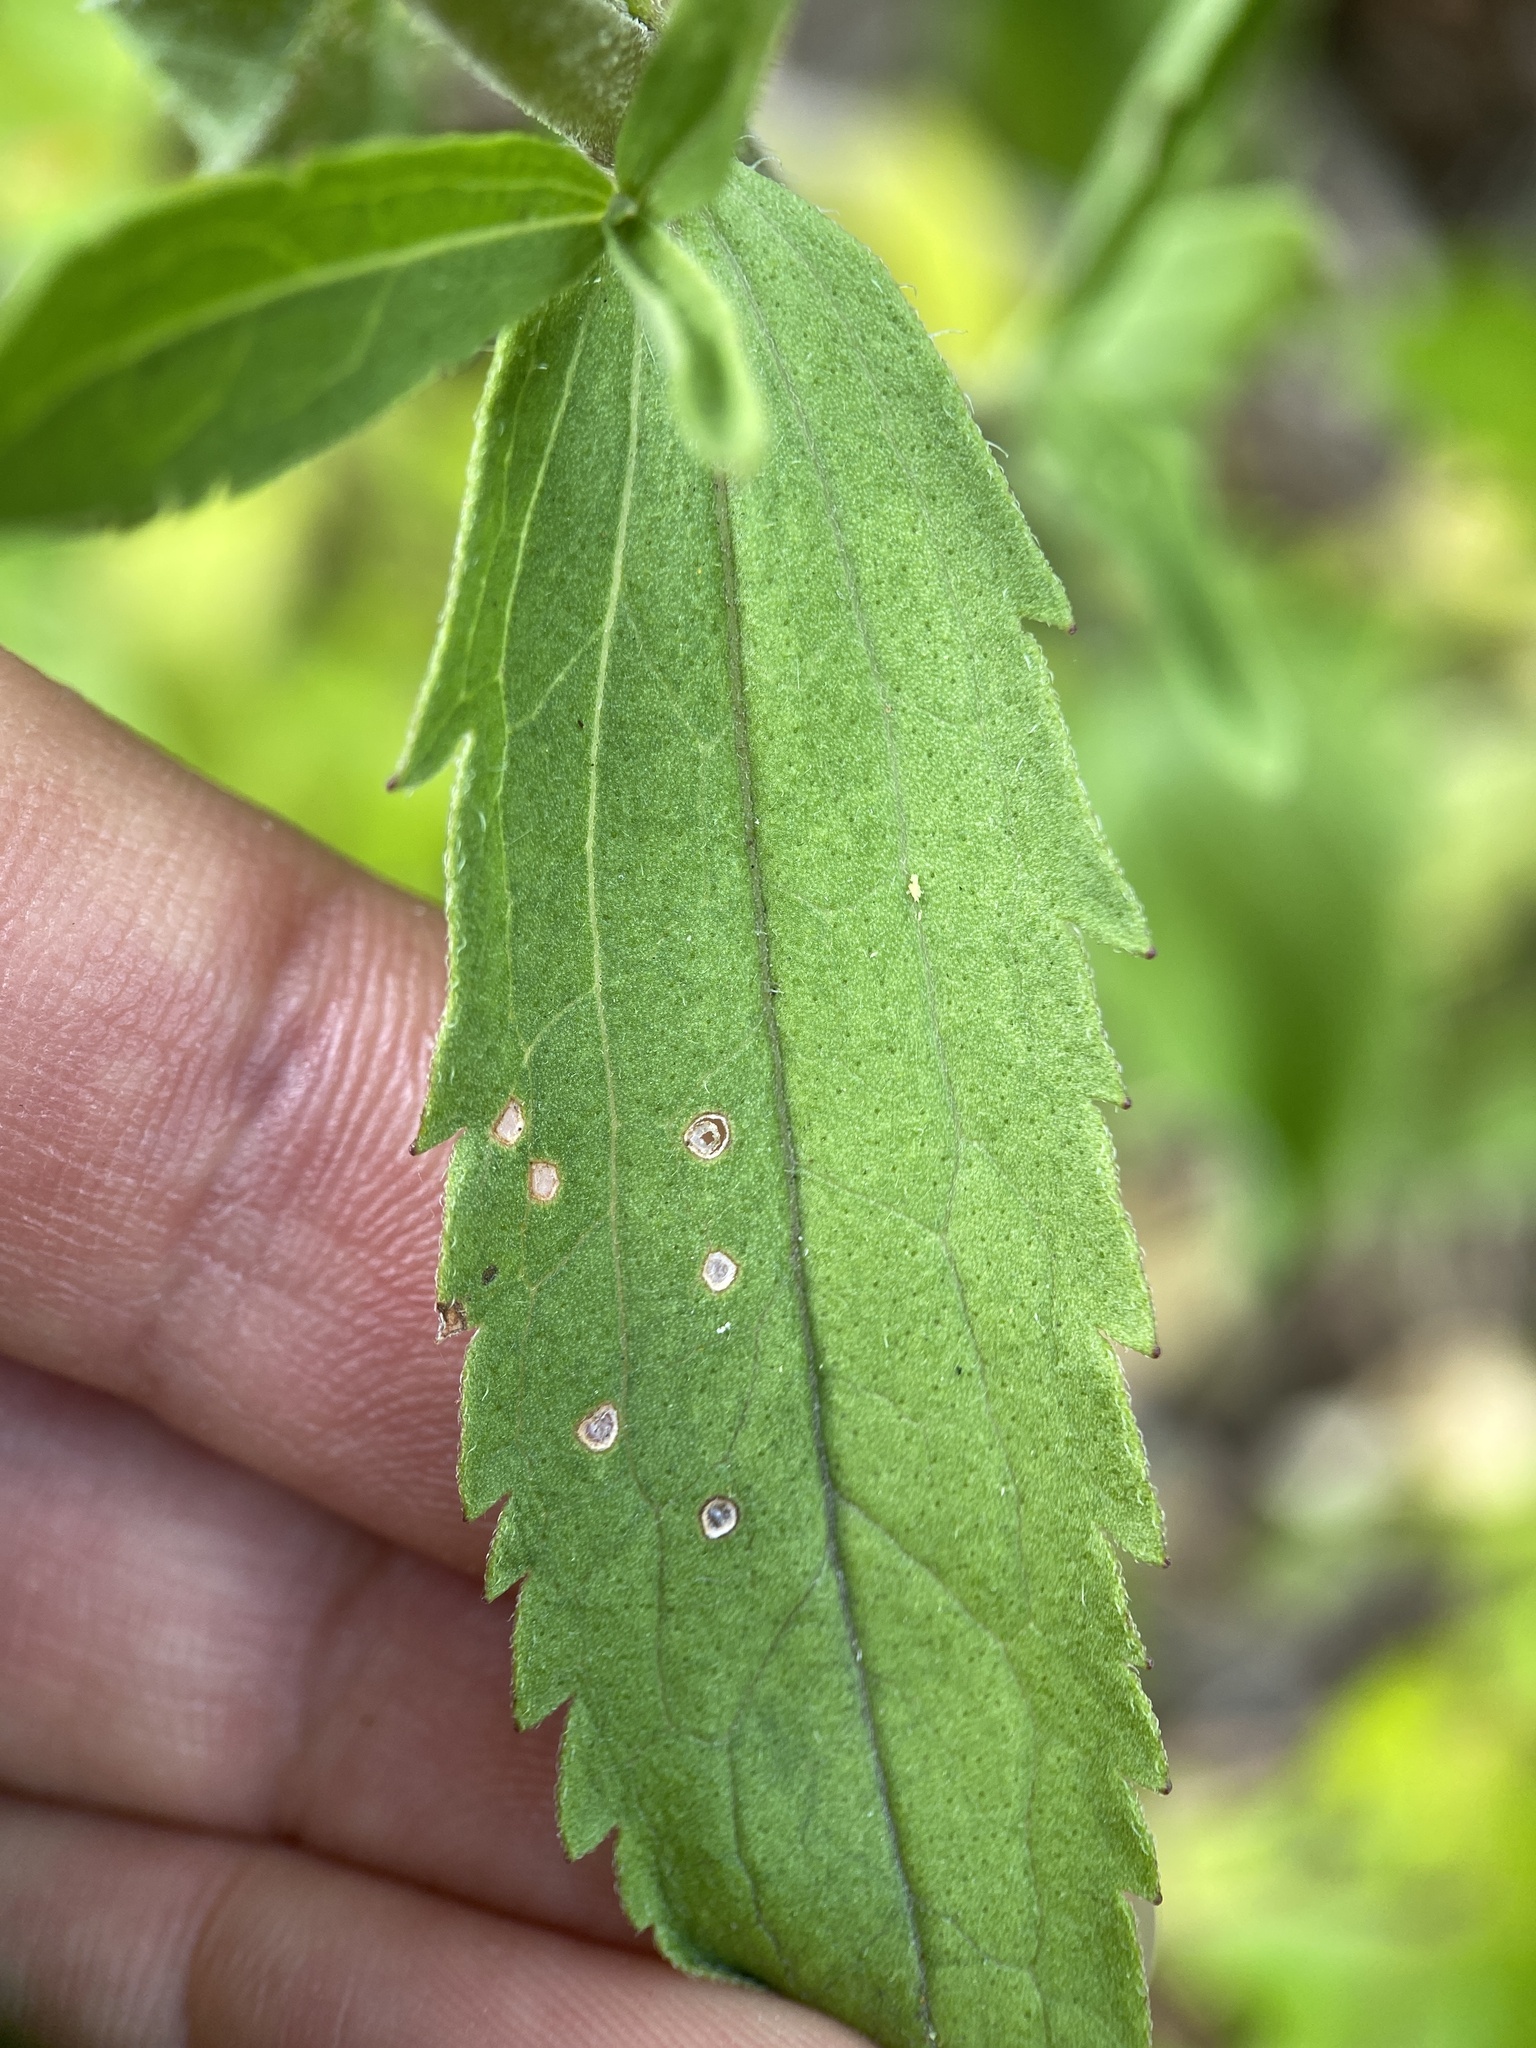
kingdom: Plantae
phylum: Tracheophyta
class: Magnoliopsida
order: Asterales
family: Asteraceae
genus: Eupatorium
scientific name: Eupatorium subvenosum
